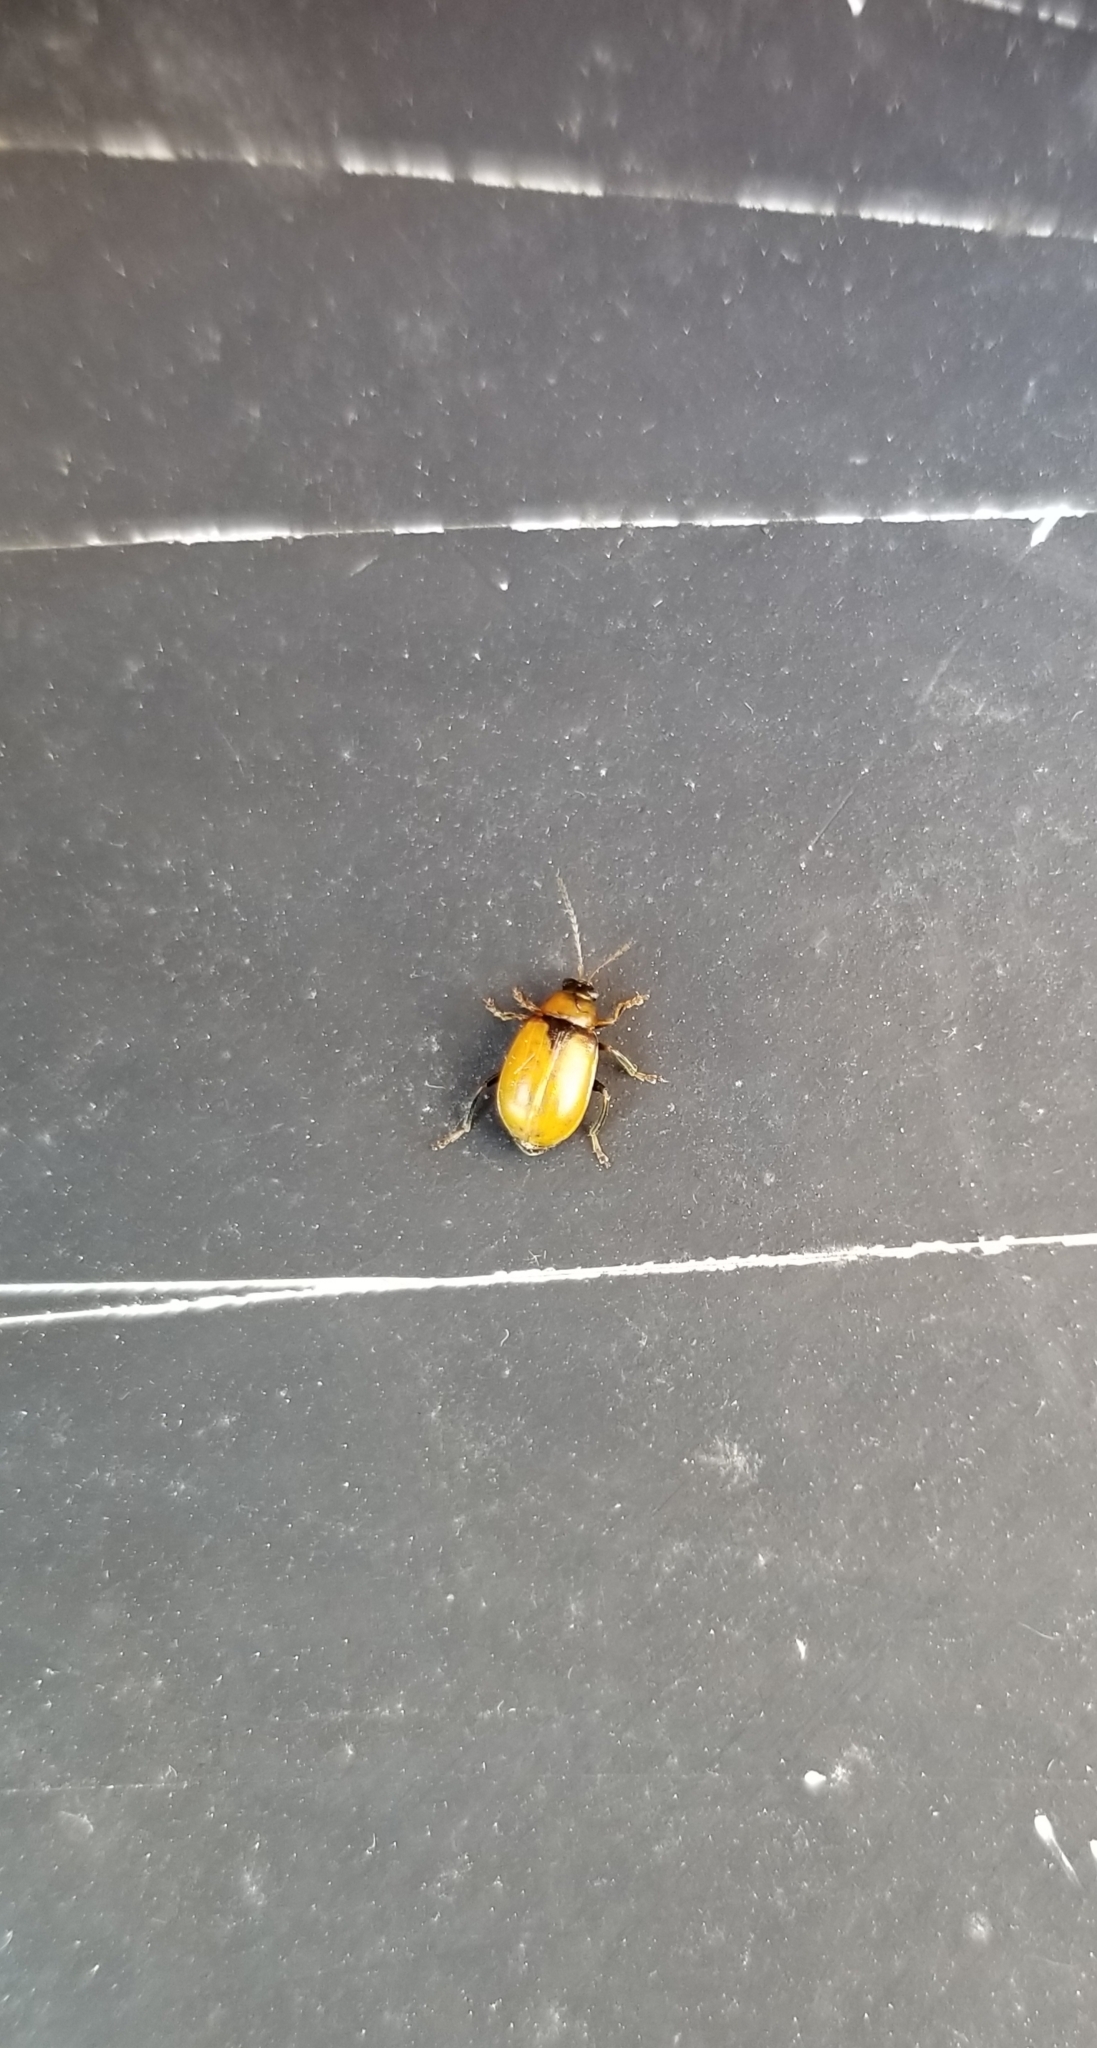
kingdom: Animalia
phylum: Arthropoda
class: Insecta
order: Coleoptera
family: Chrysomelidae
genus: Cerotoma
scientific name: Cerotoma trifurcata
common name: Bean leaf beetle
